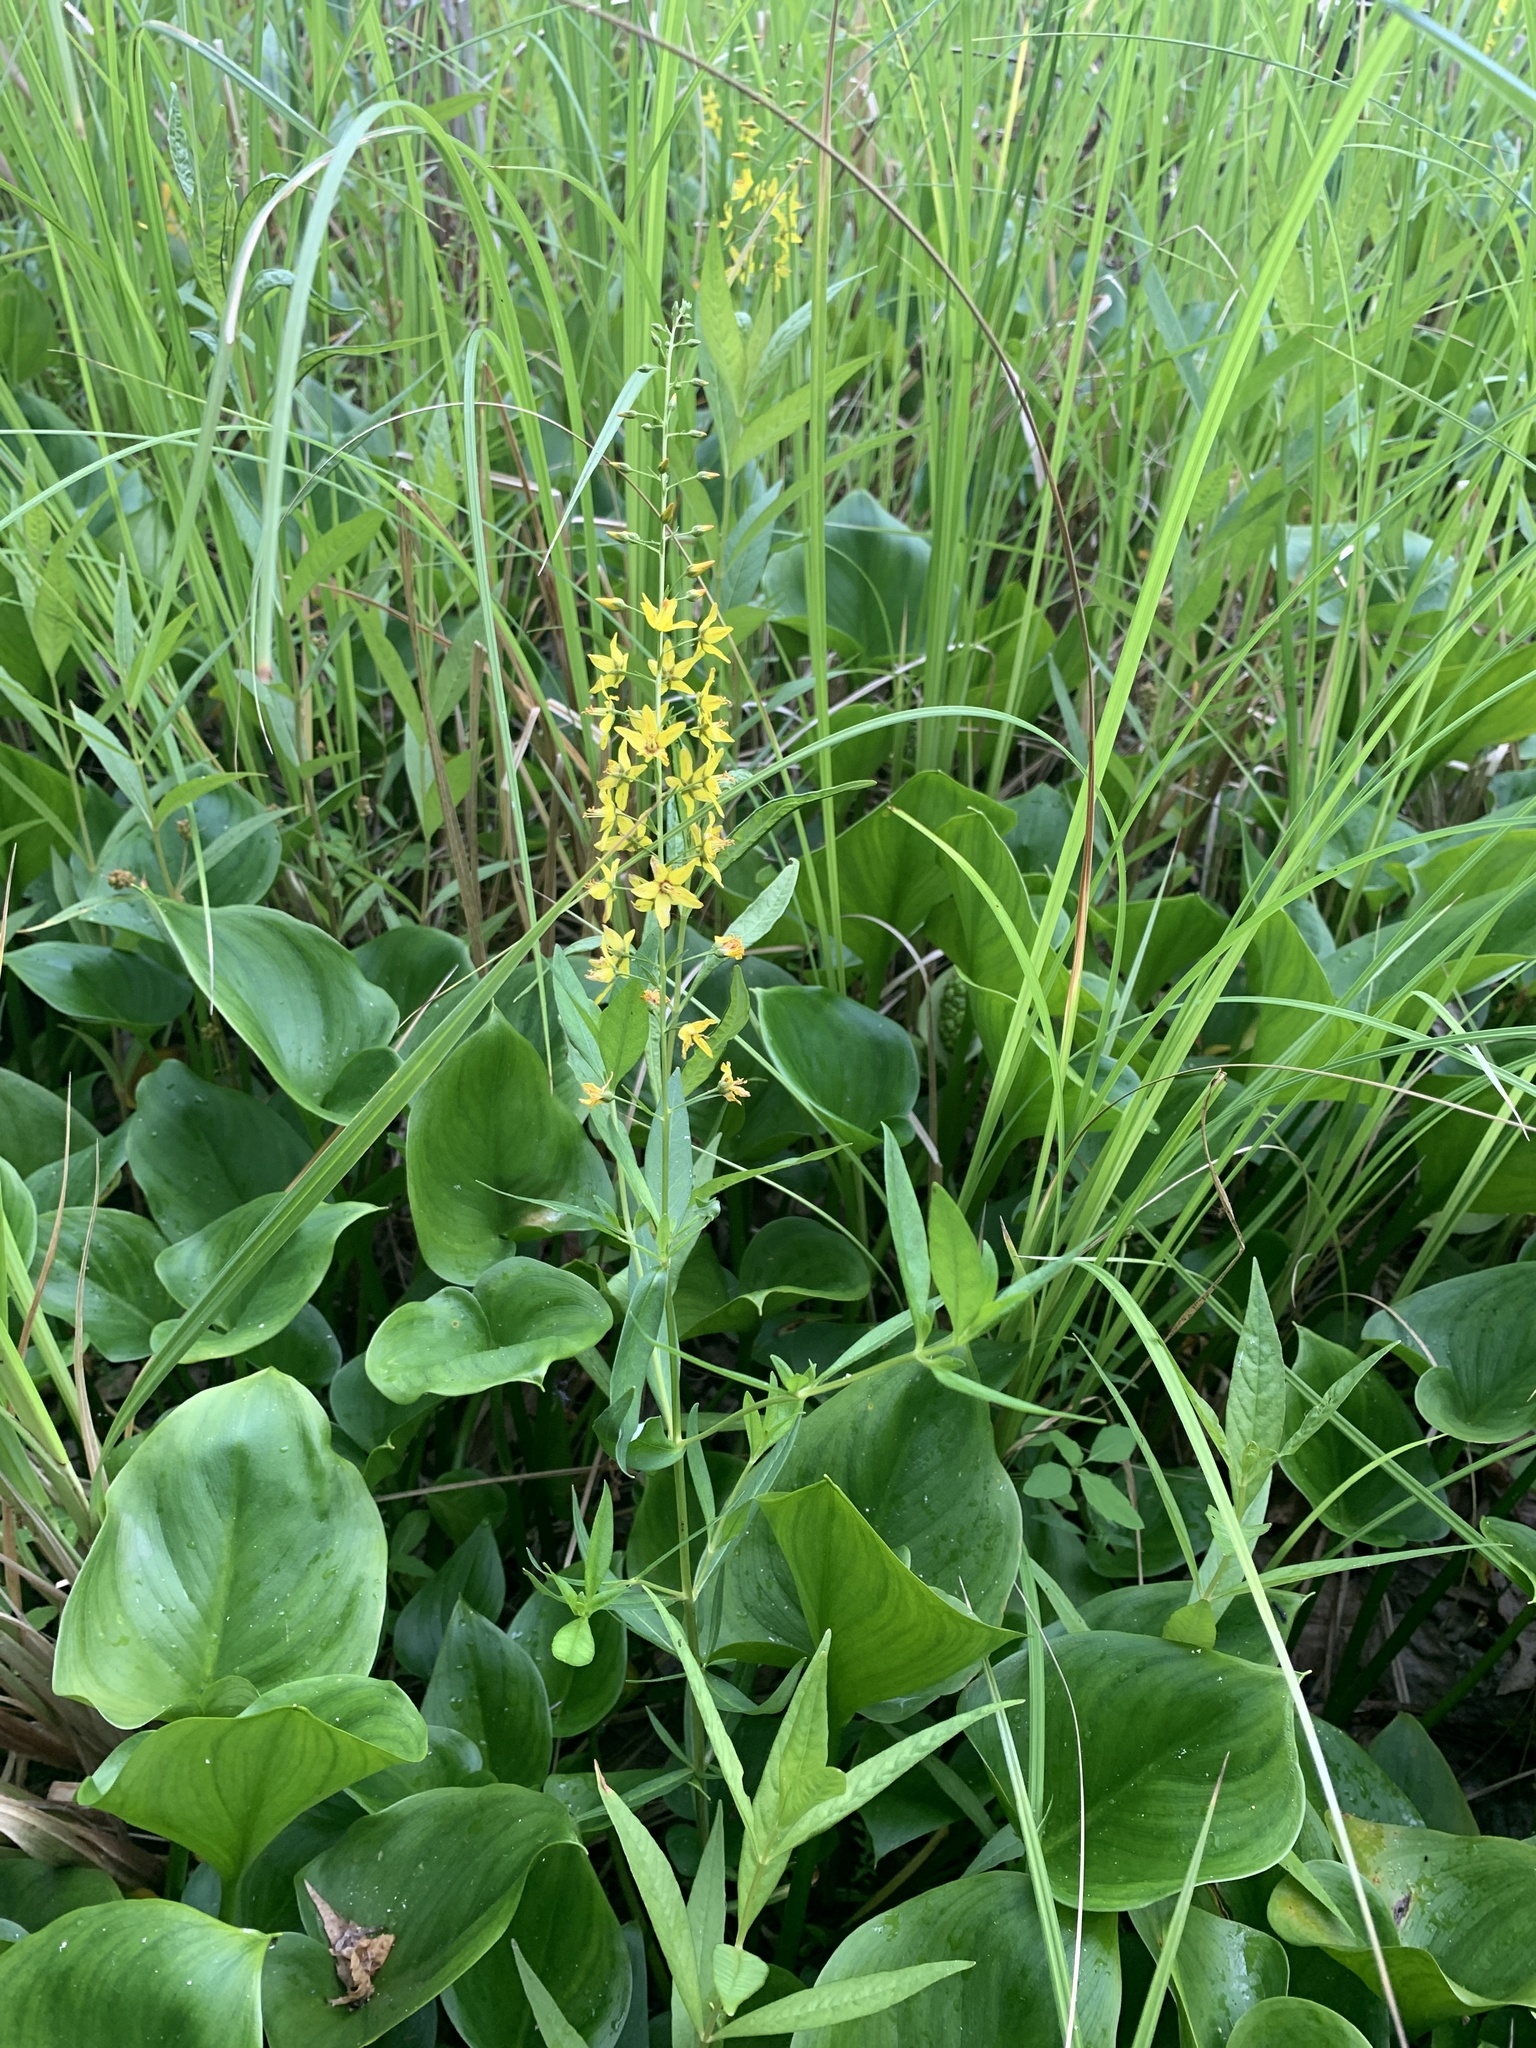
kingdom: Plantae
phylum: Tracheophyta
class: Magnoliopsida
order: Ericales
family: Primulaceae
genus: Lysimachia
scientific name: Lysimachia terrestris
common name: Lake loosestrife
